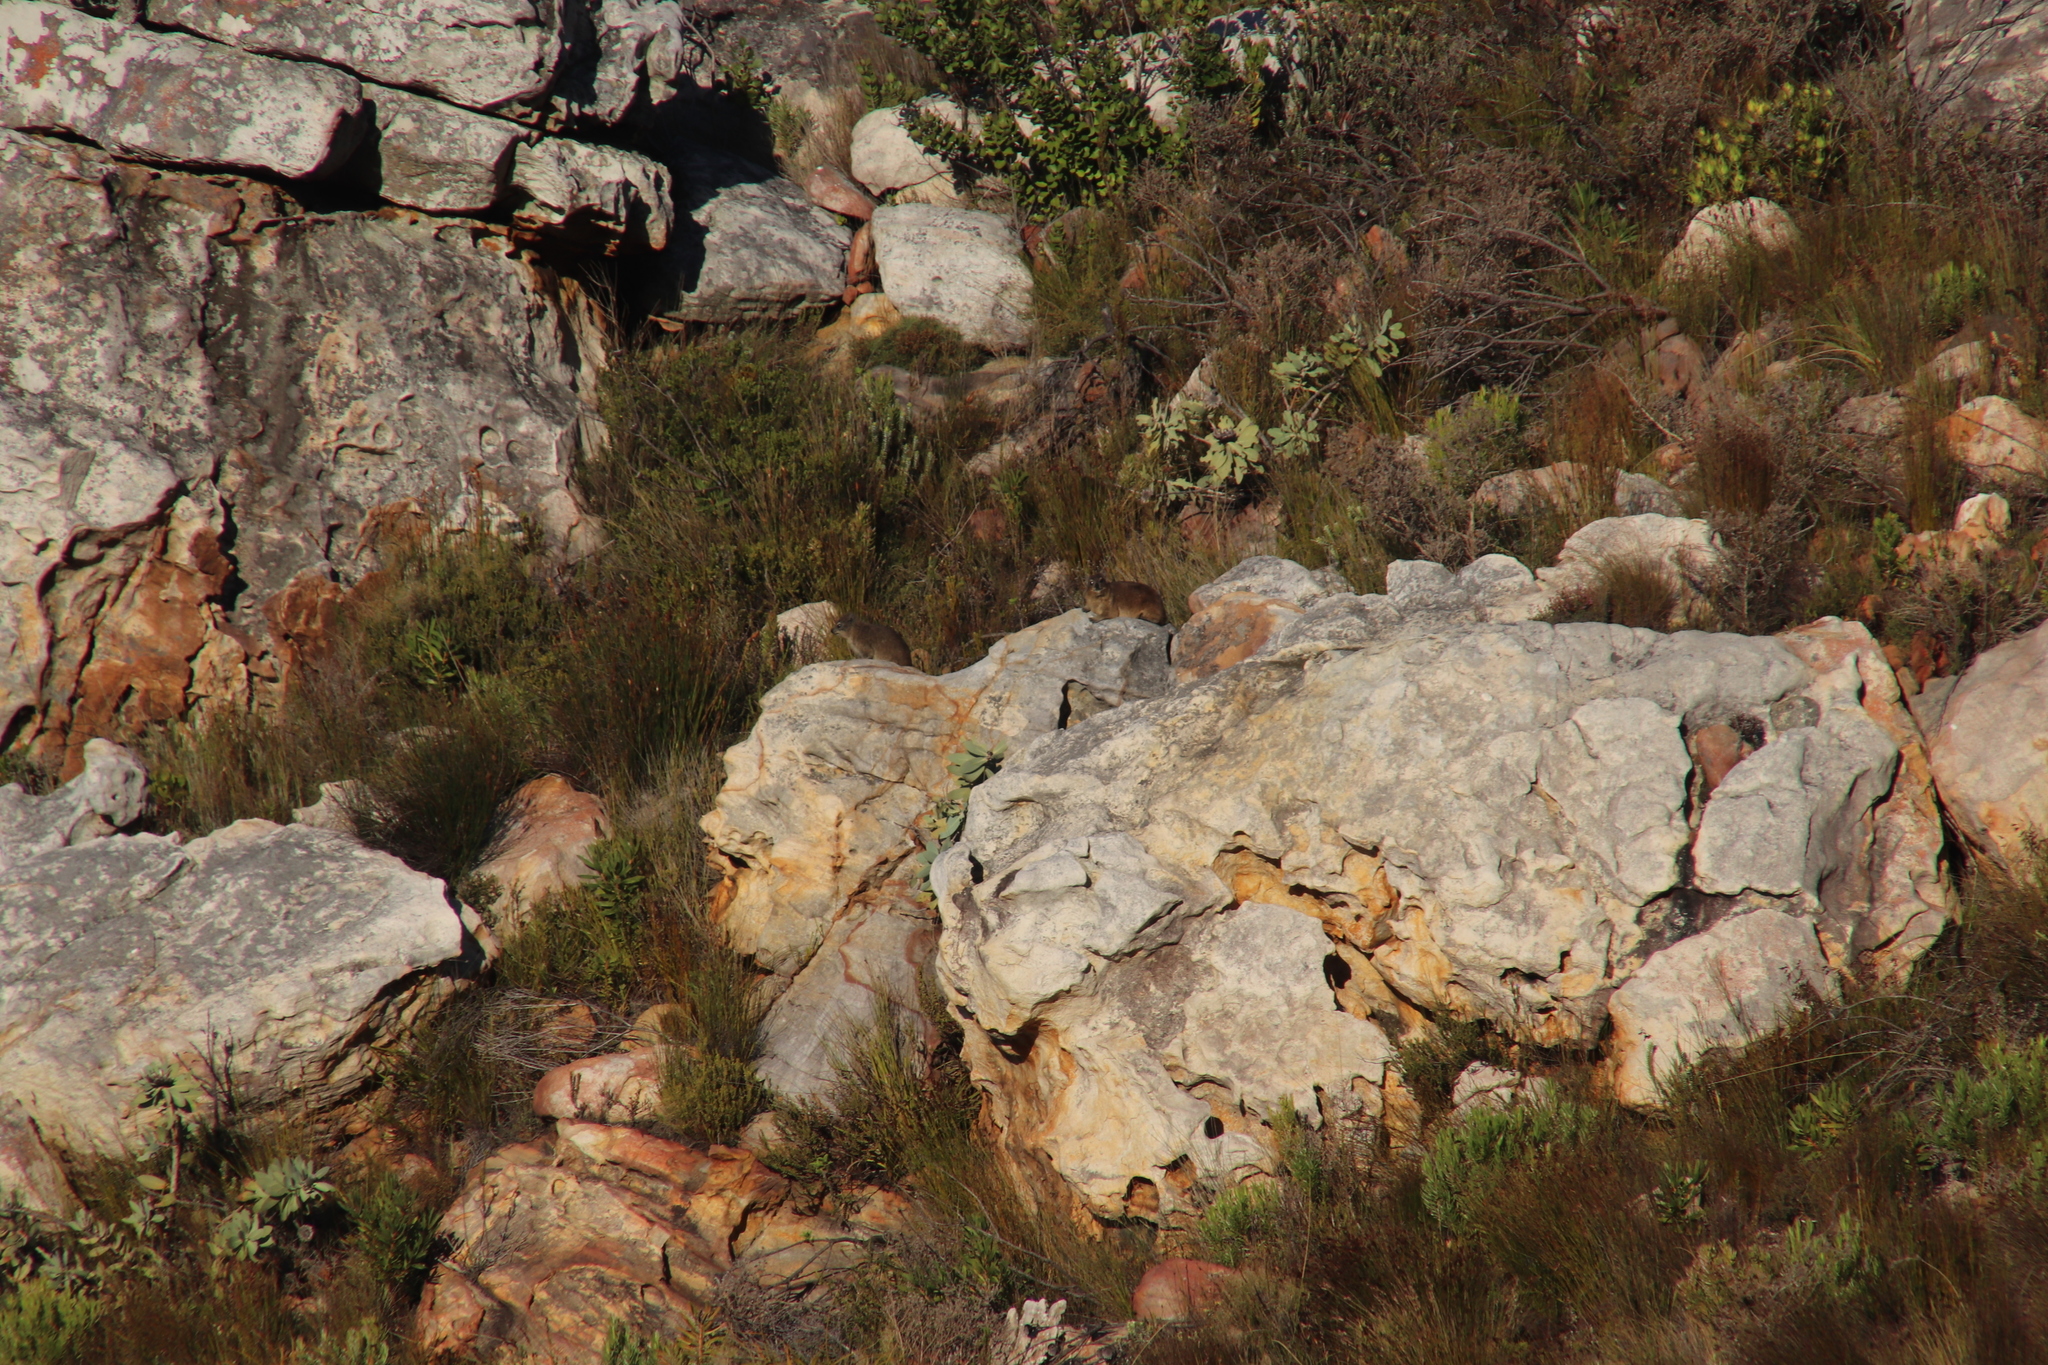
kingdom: Animalia
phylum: Chordata
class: Mammalia
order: Hyracoidea
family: Procaviidae
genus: Procavia
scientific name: Procavia capensis
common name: Rock hyrax
